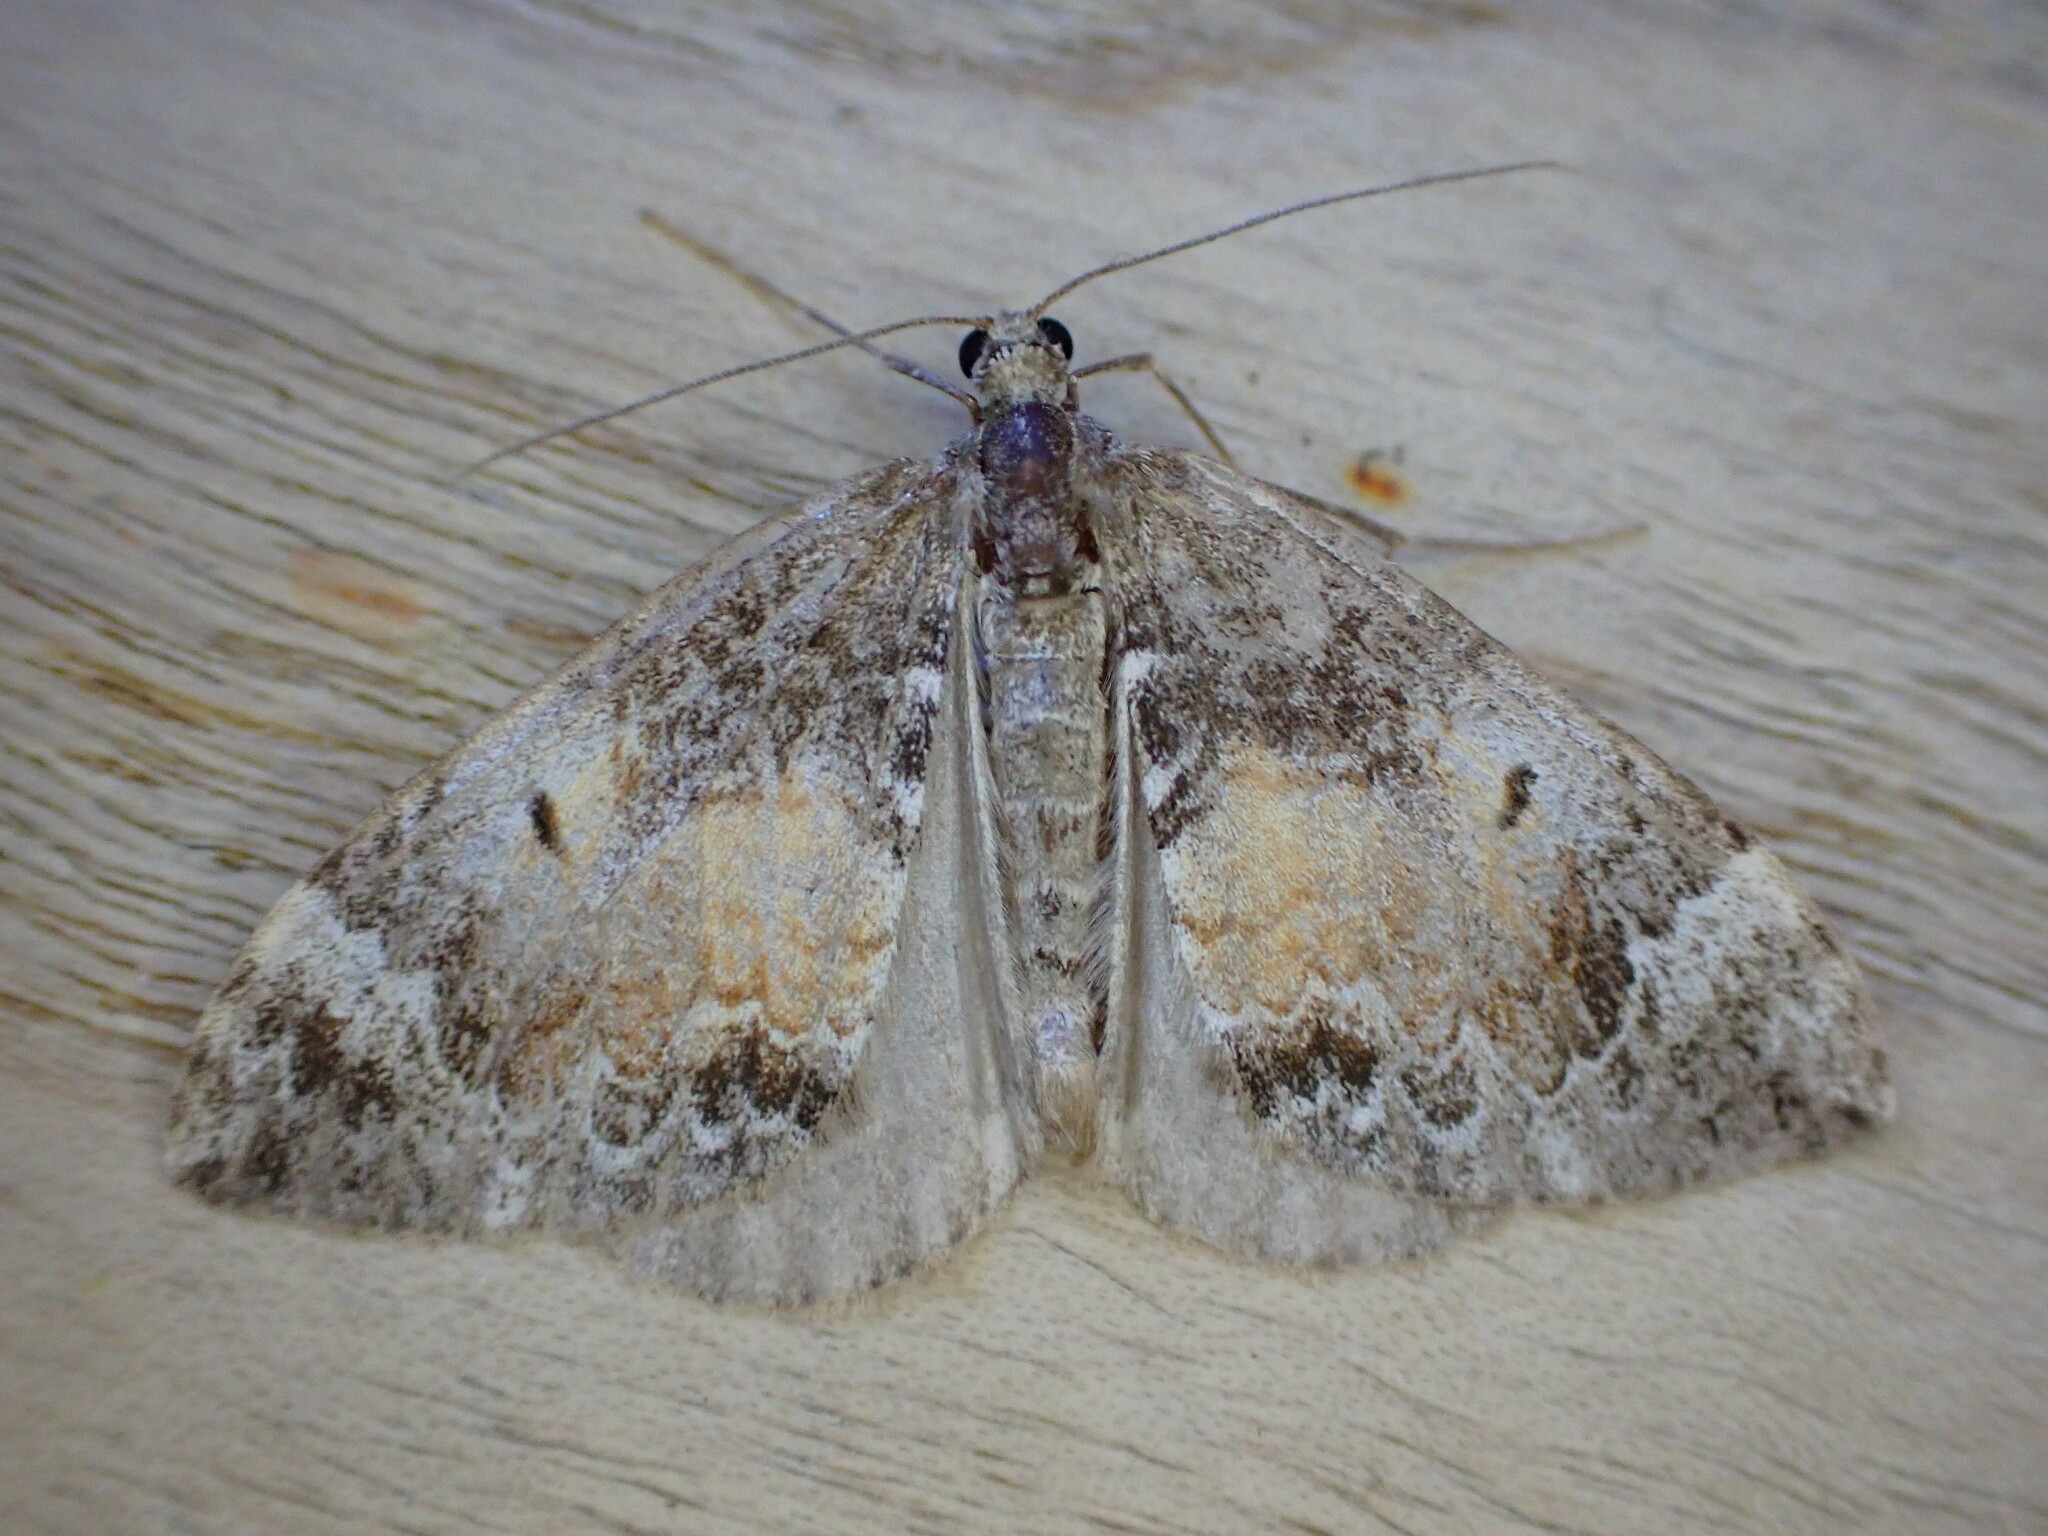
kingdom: Animalia
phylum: Arthropoda
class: Insecta
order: Lepidoptera
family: Geometridae
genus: Dysstroma
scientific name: Dysstroma truncata
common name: Common marbled carpet
